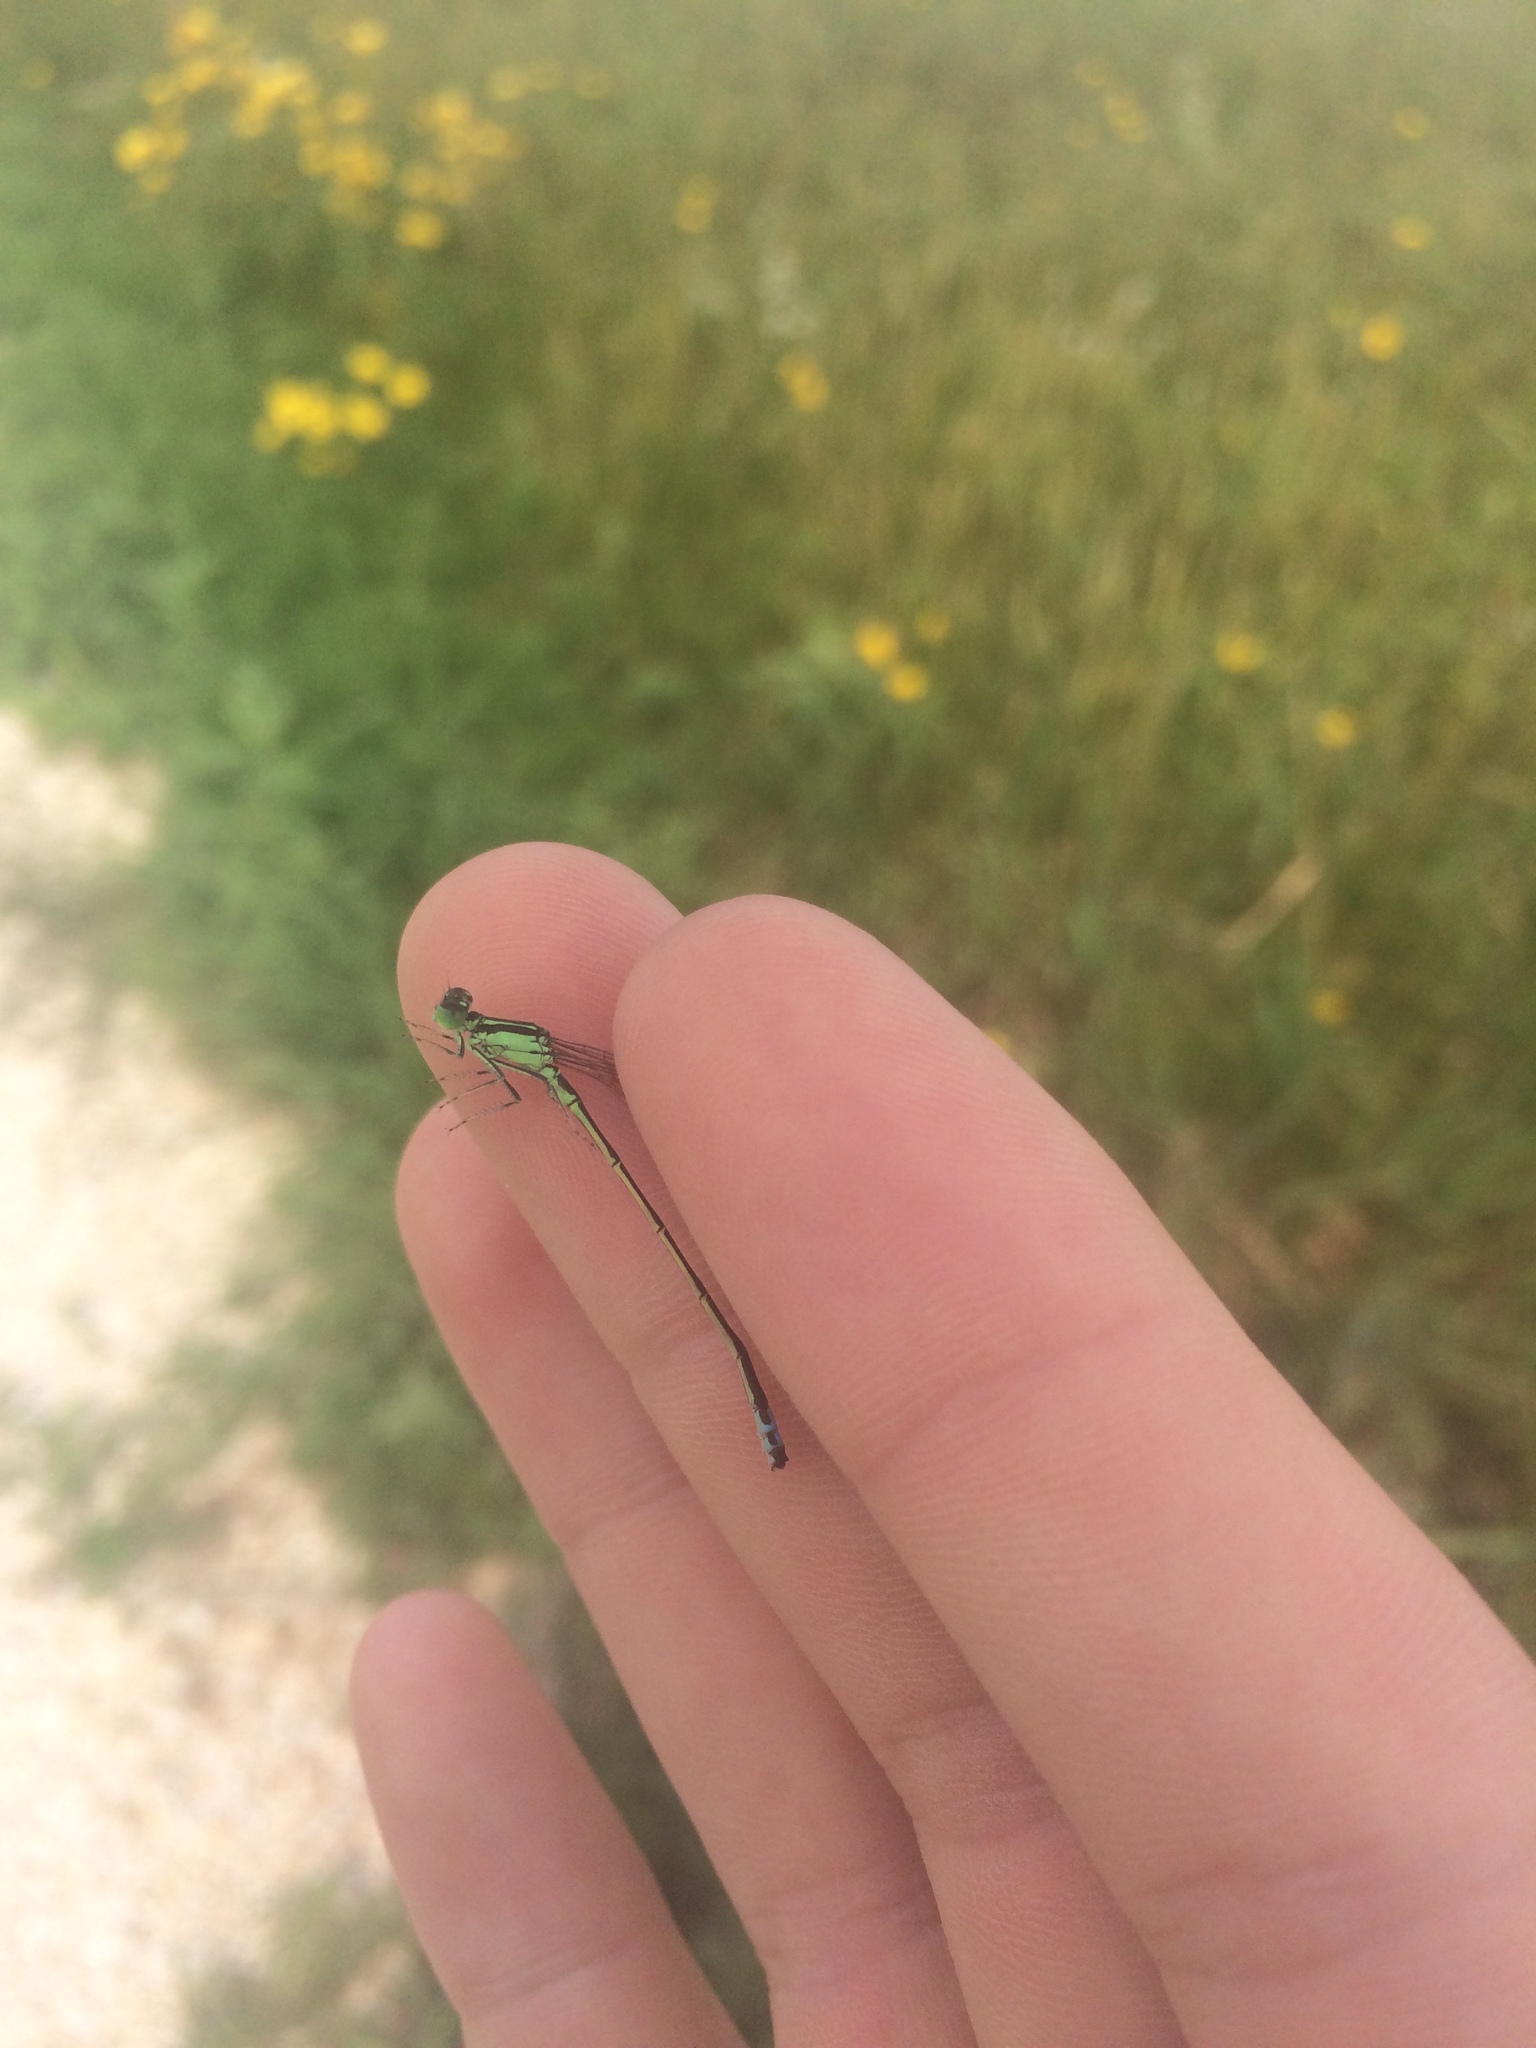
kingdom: Animalia
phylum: Arthropoda
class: Insecta
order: Odonata
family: Coenagrionidae
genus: Ischnura
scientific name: Ischnura verticalis
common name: Eastern forktail
